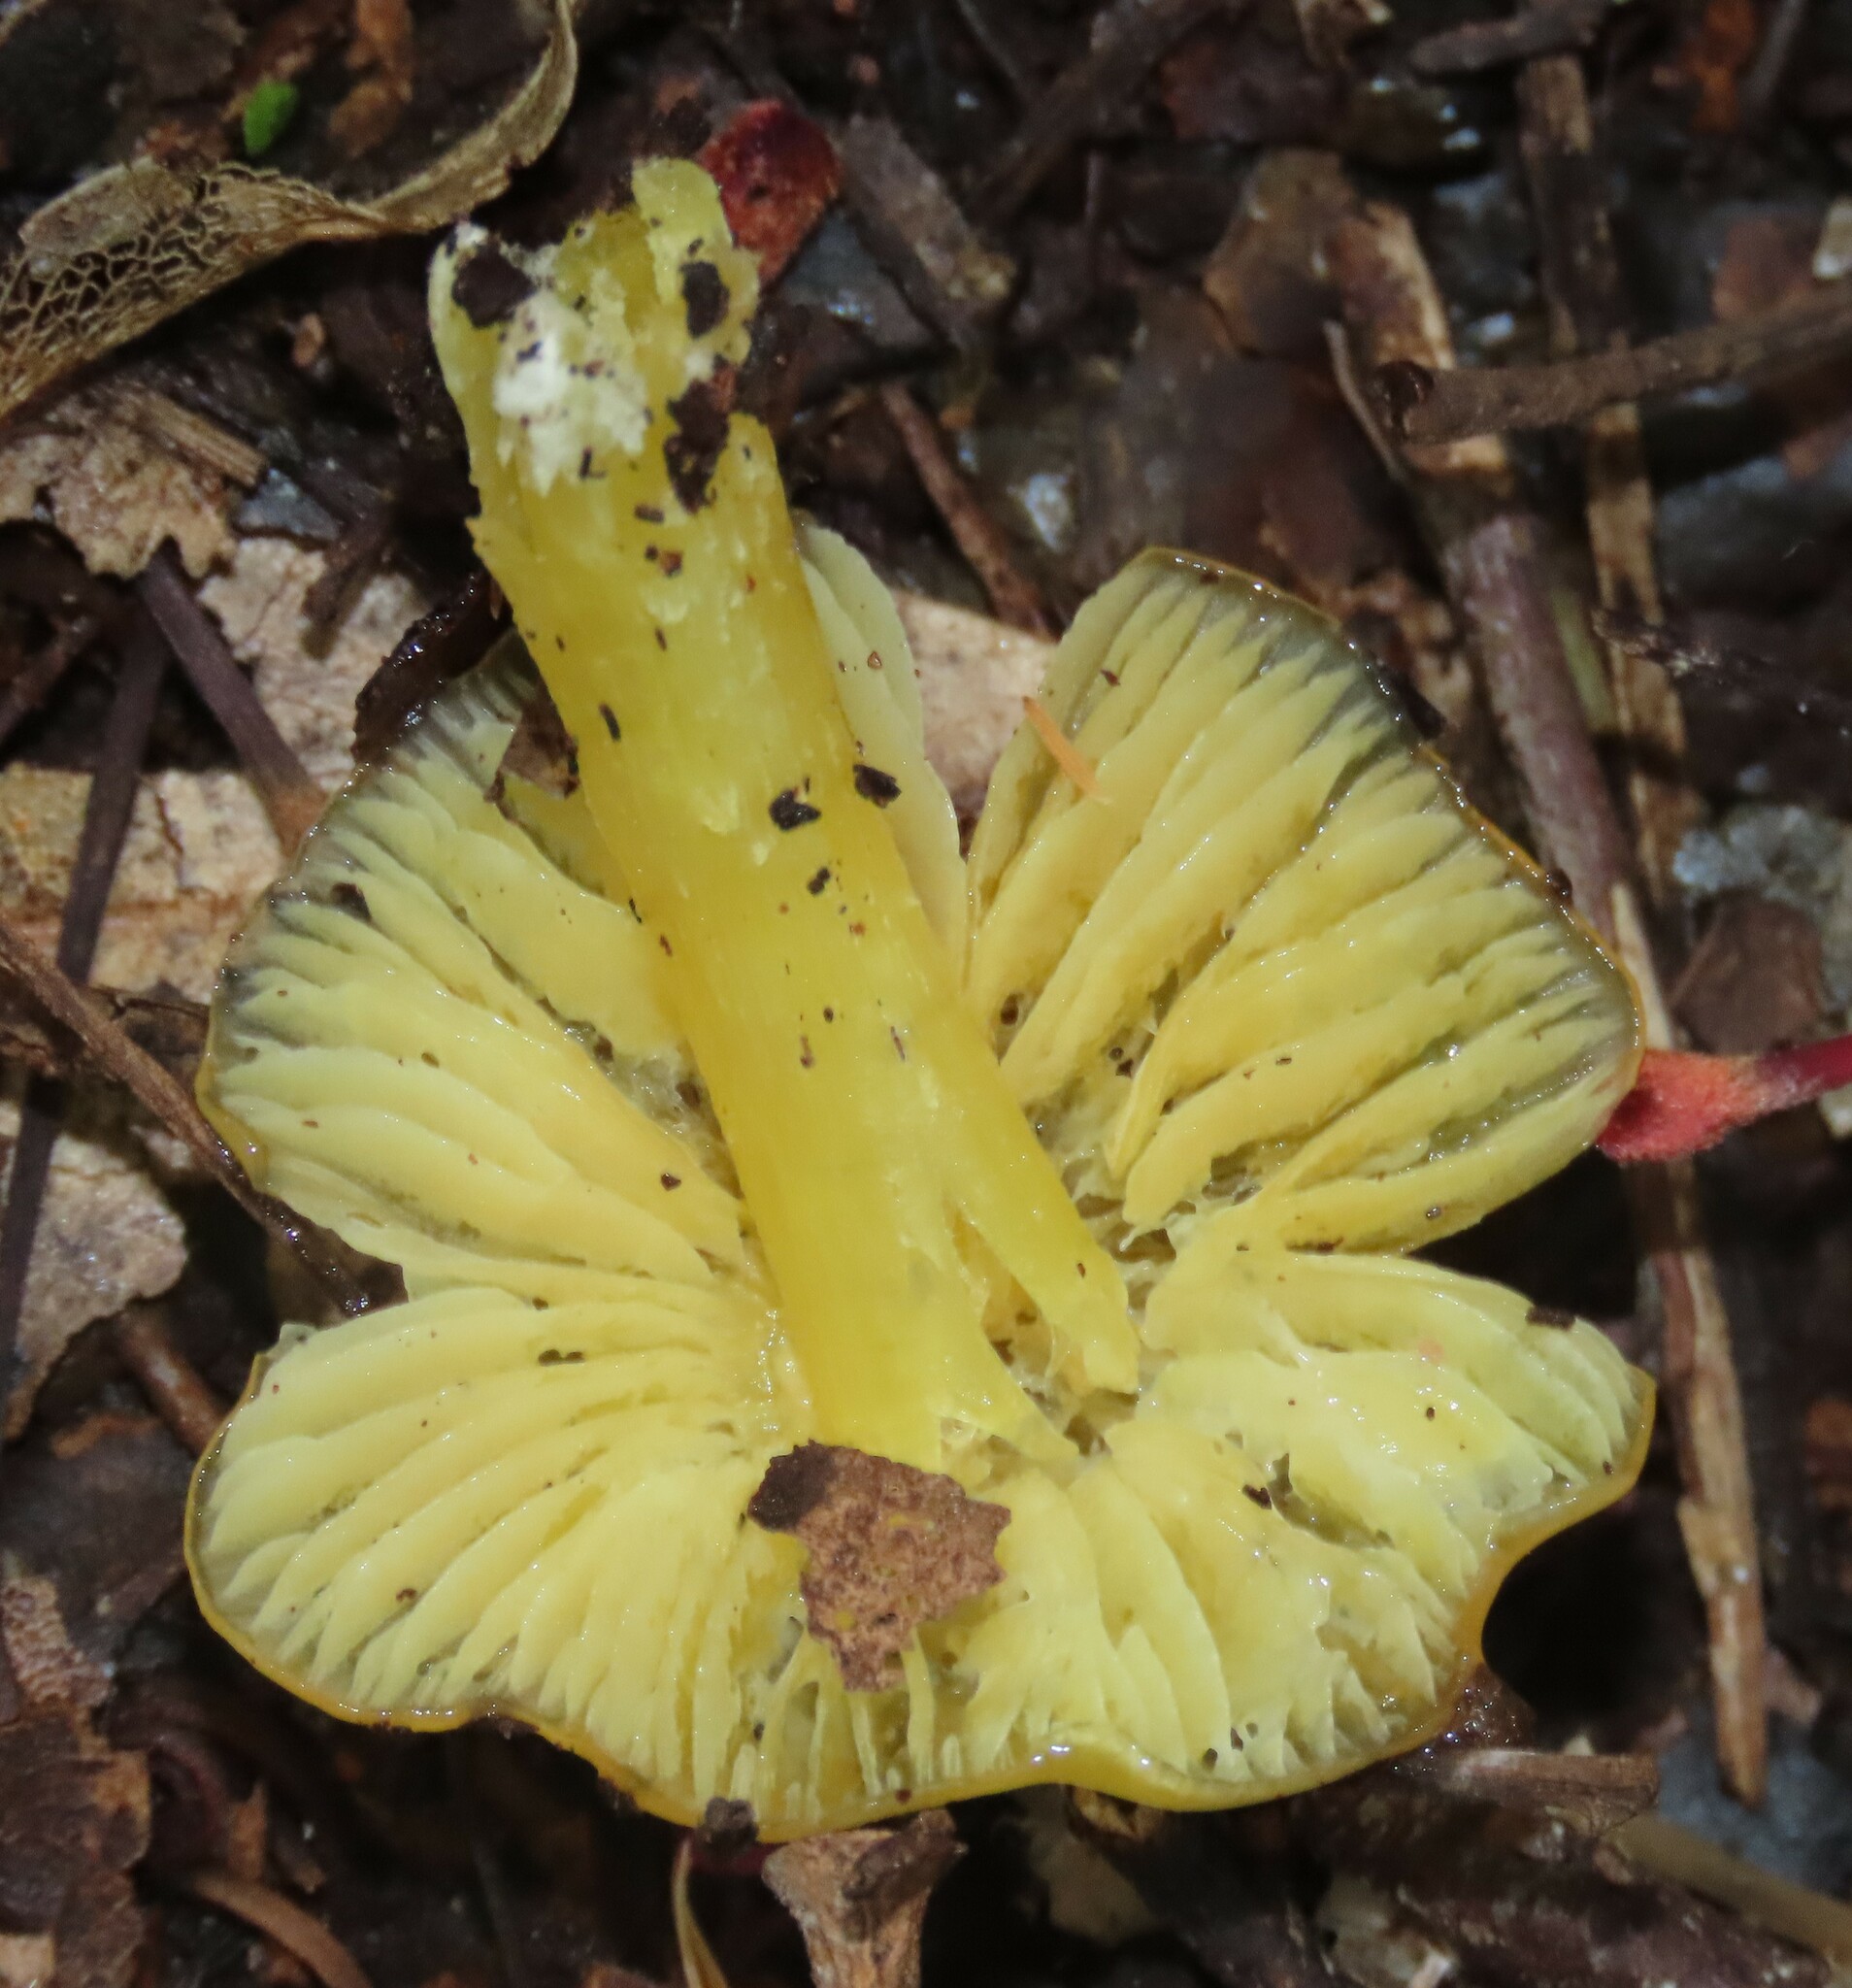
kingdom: Fungi
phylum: Basidiomycota
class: Agaricomycetes
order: Agaricales
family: Hygrophoraceae
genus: Hygrocybe
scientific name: Hygrocybe striatolutea
